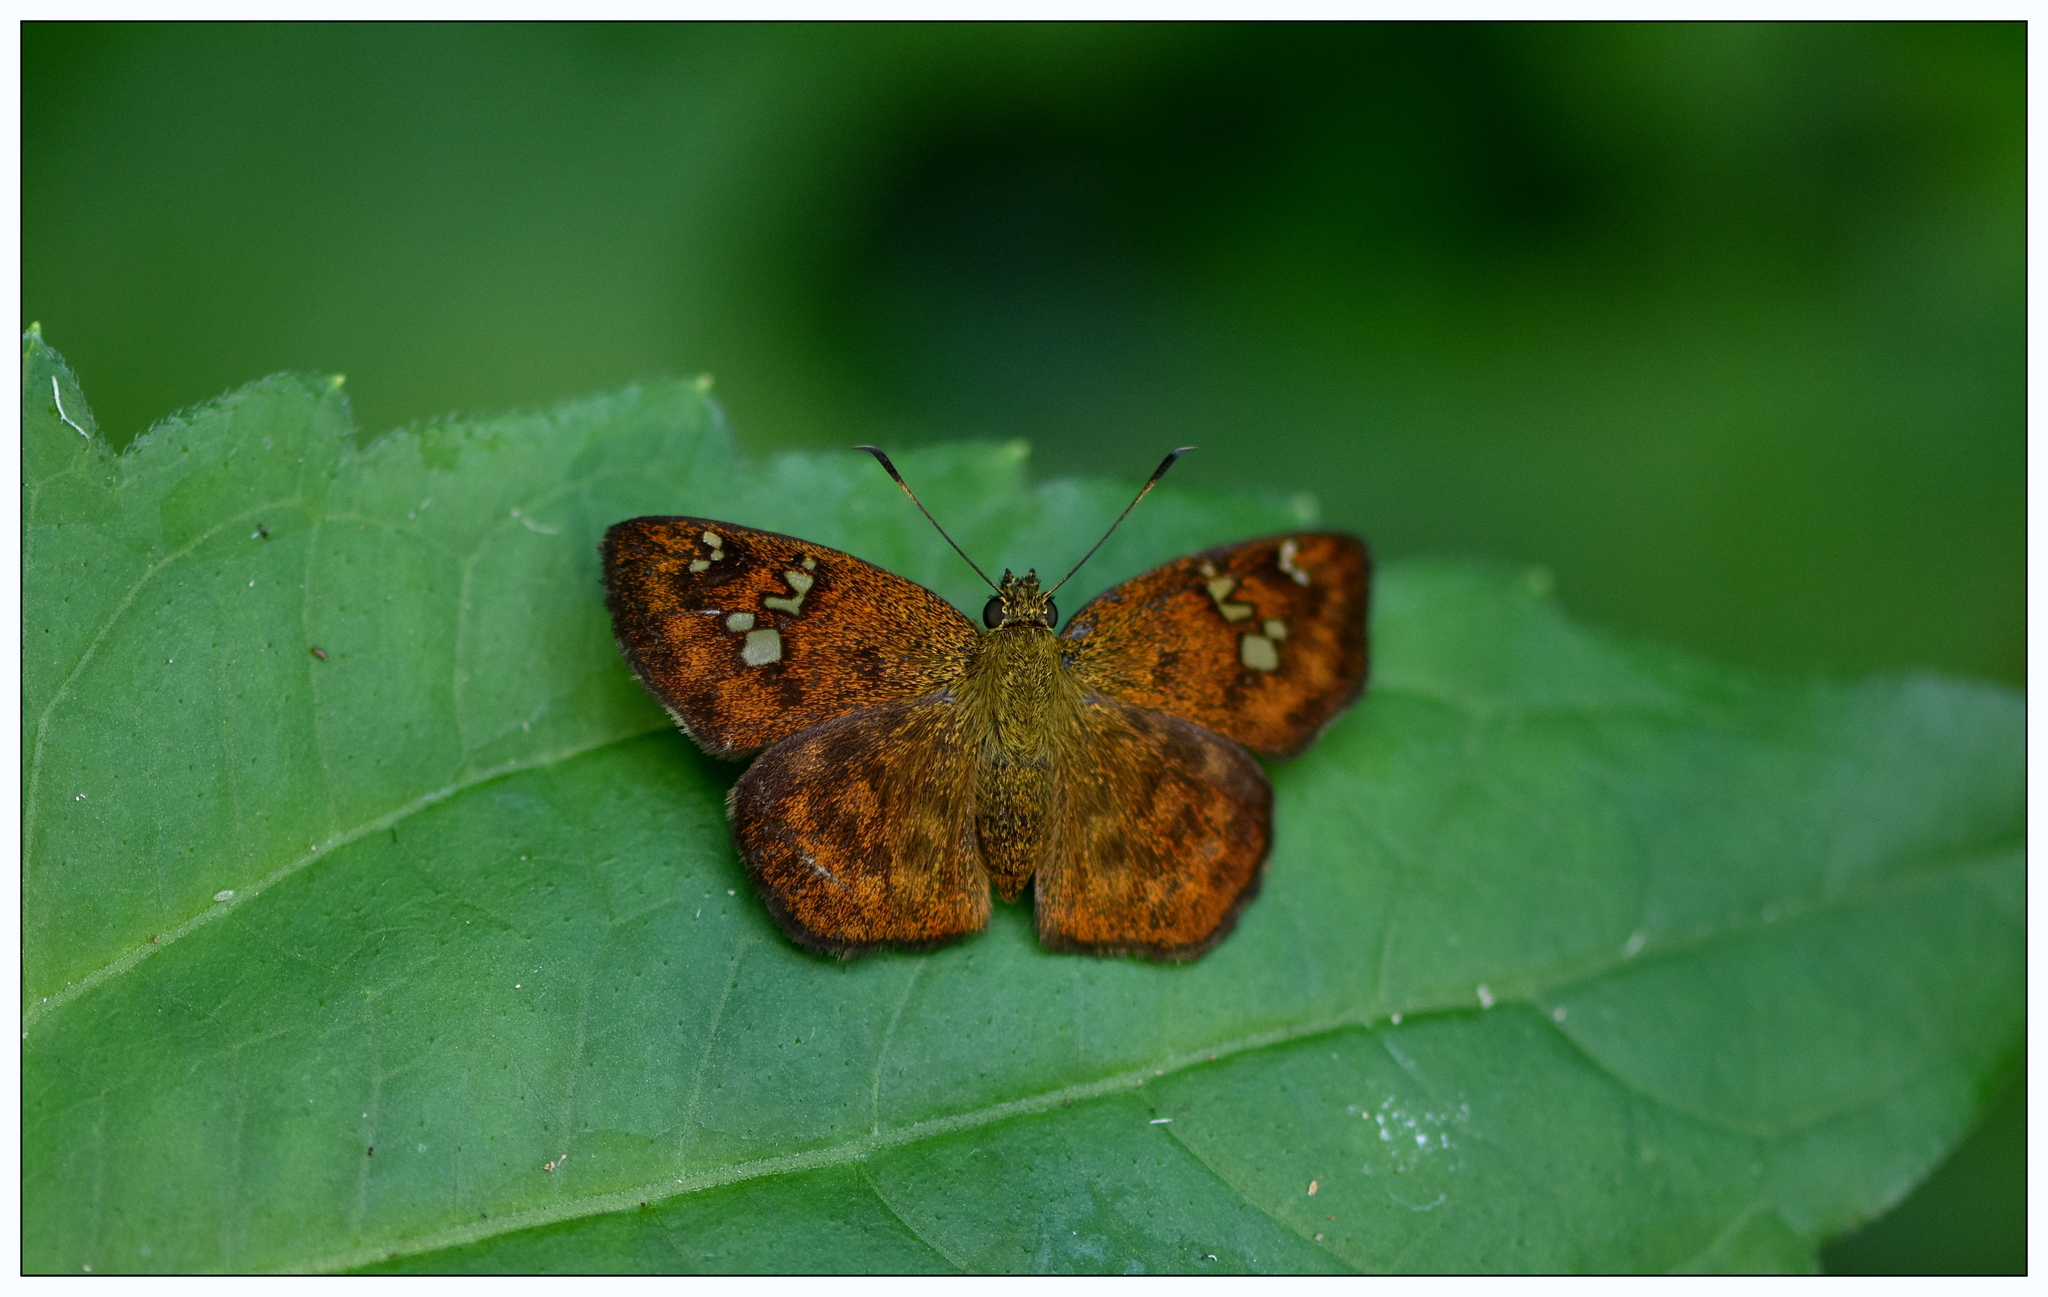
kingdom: Animalia
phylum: Arthropoda
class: Insecta
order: Lepidoptera
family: Hesperiidae
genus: Pseudocoladenia
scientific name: Pseudocoladenia dan
